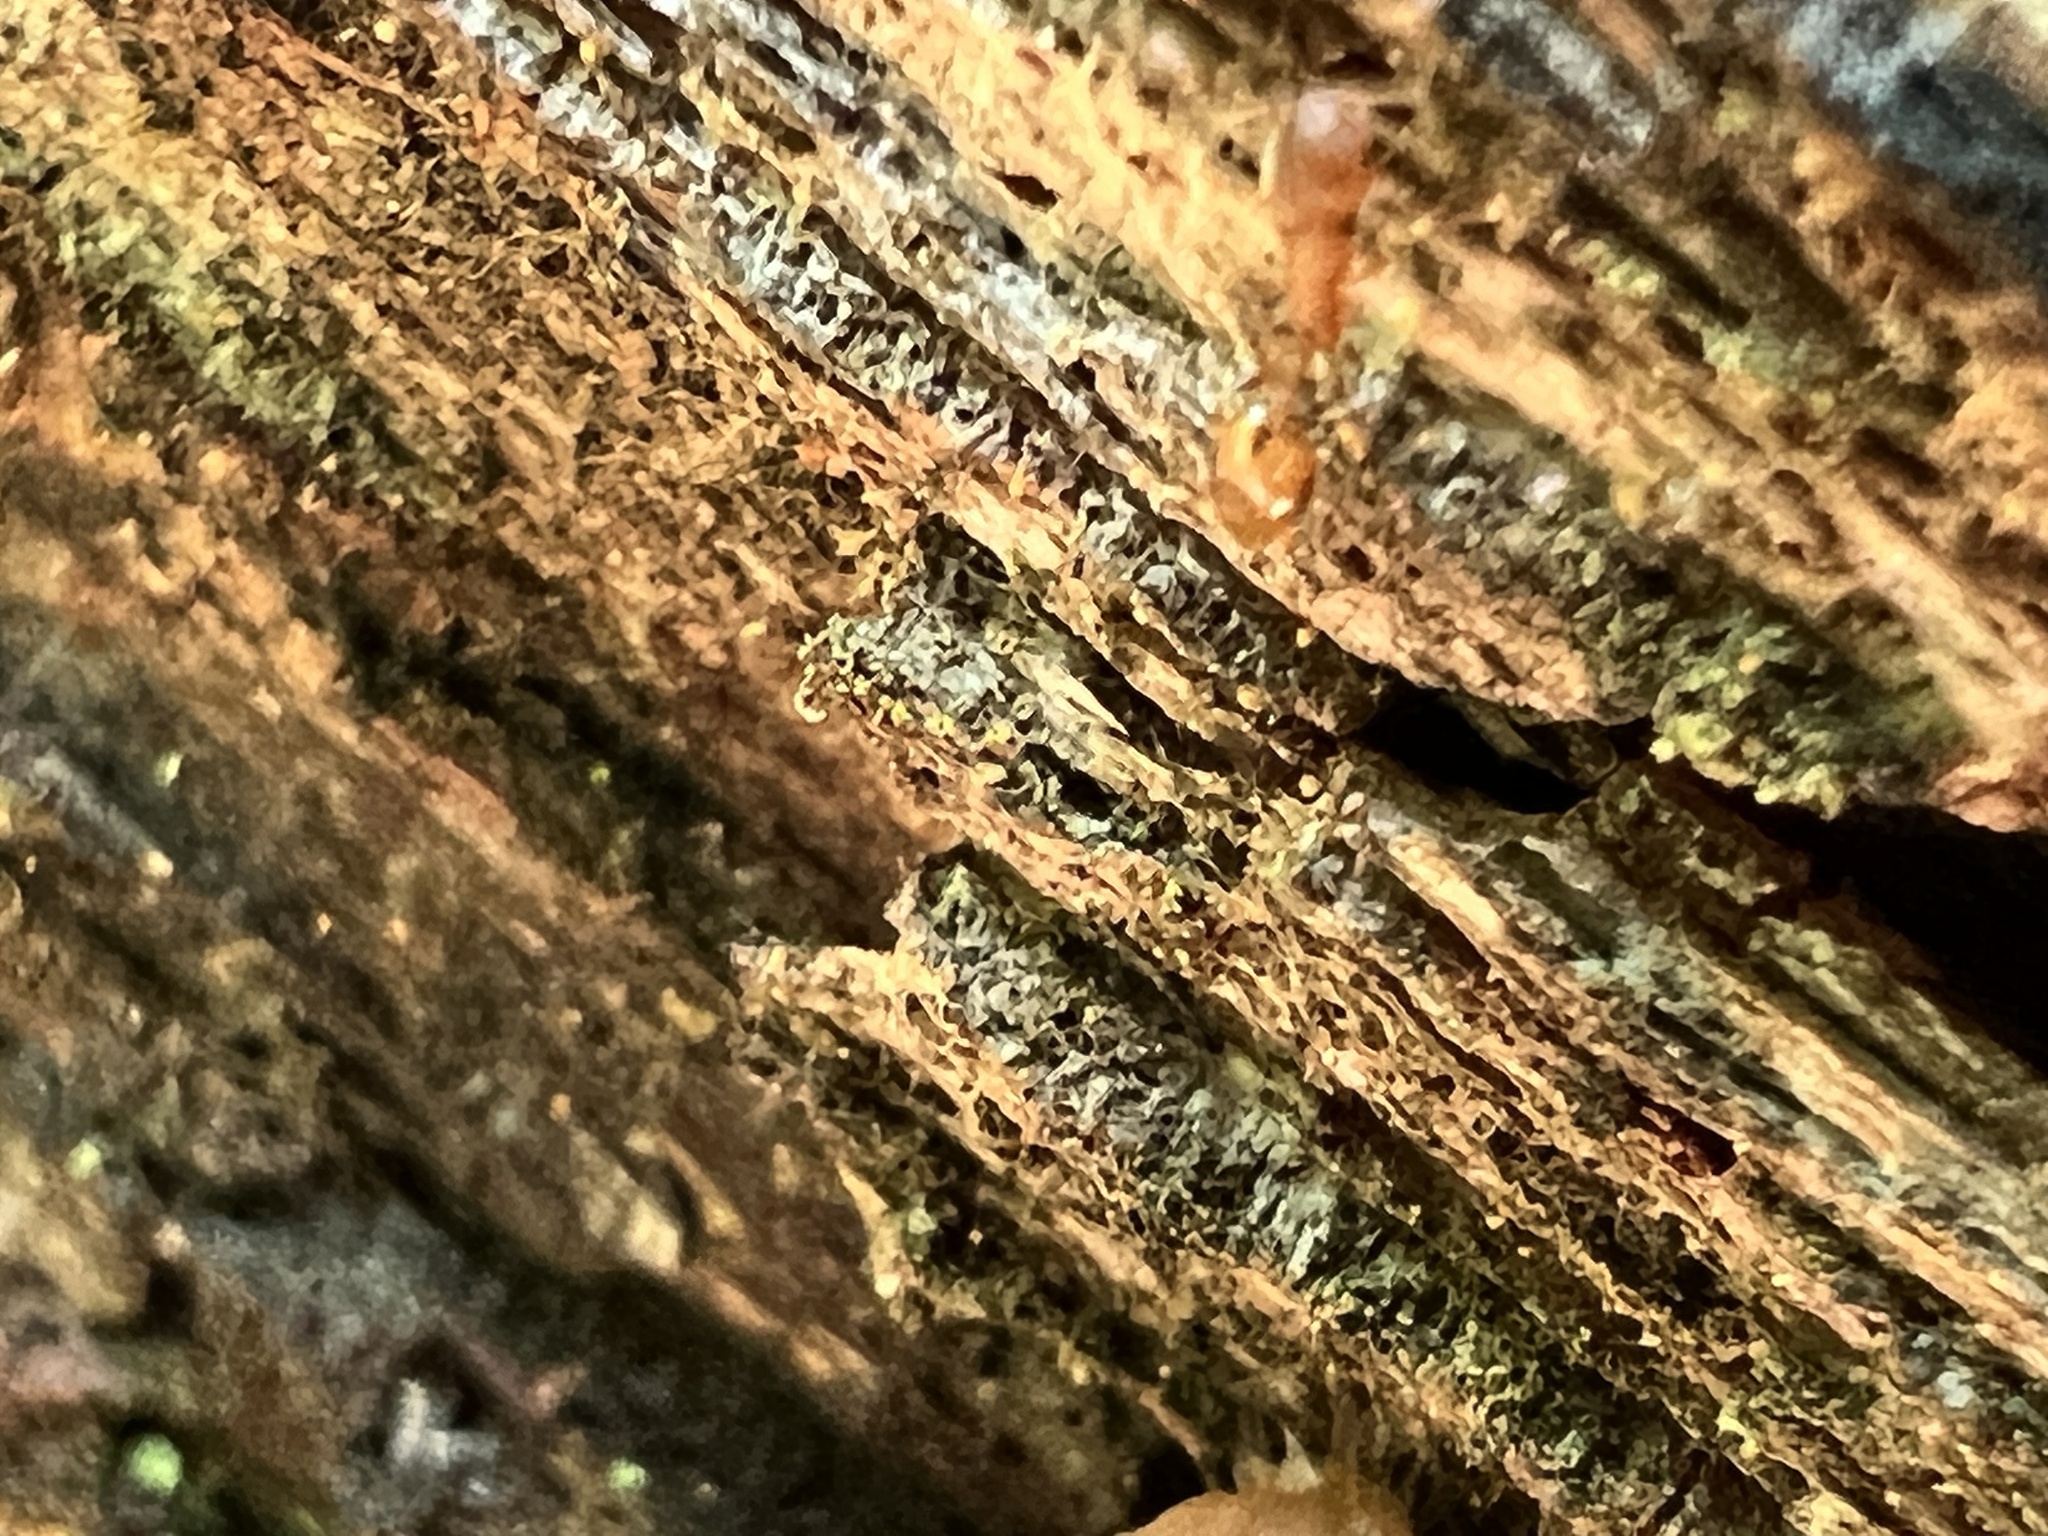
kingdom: Animalia
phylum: Arthropoda
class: Insecta
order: Hymenoptera
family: Formicidae
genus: Temnothorax
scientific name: Temnothorax curvispinosus
